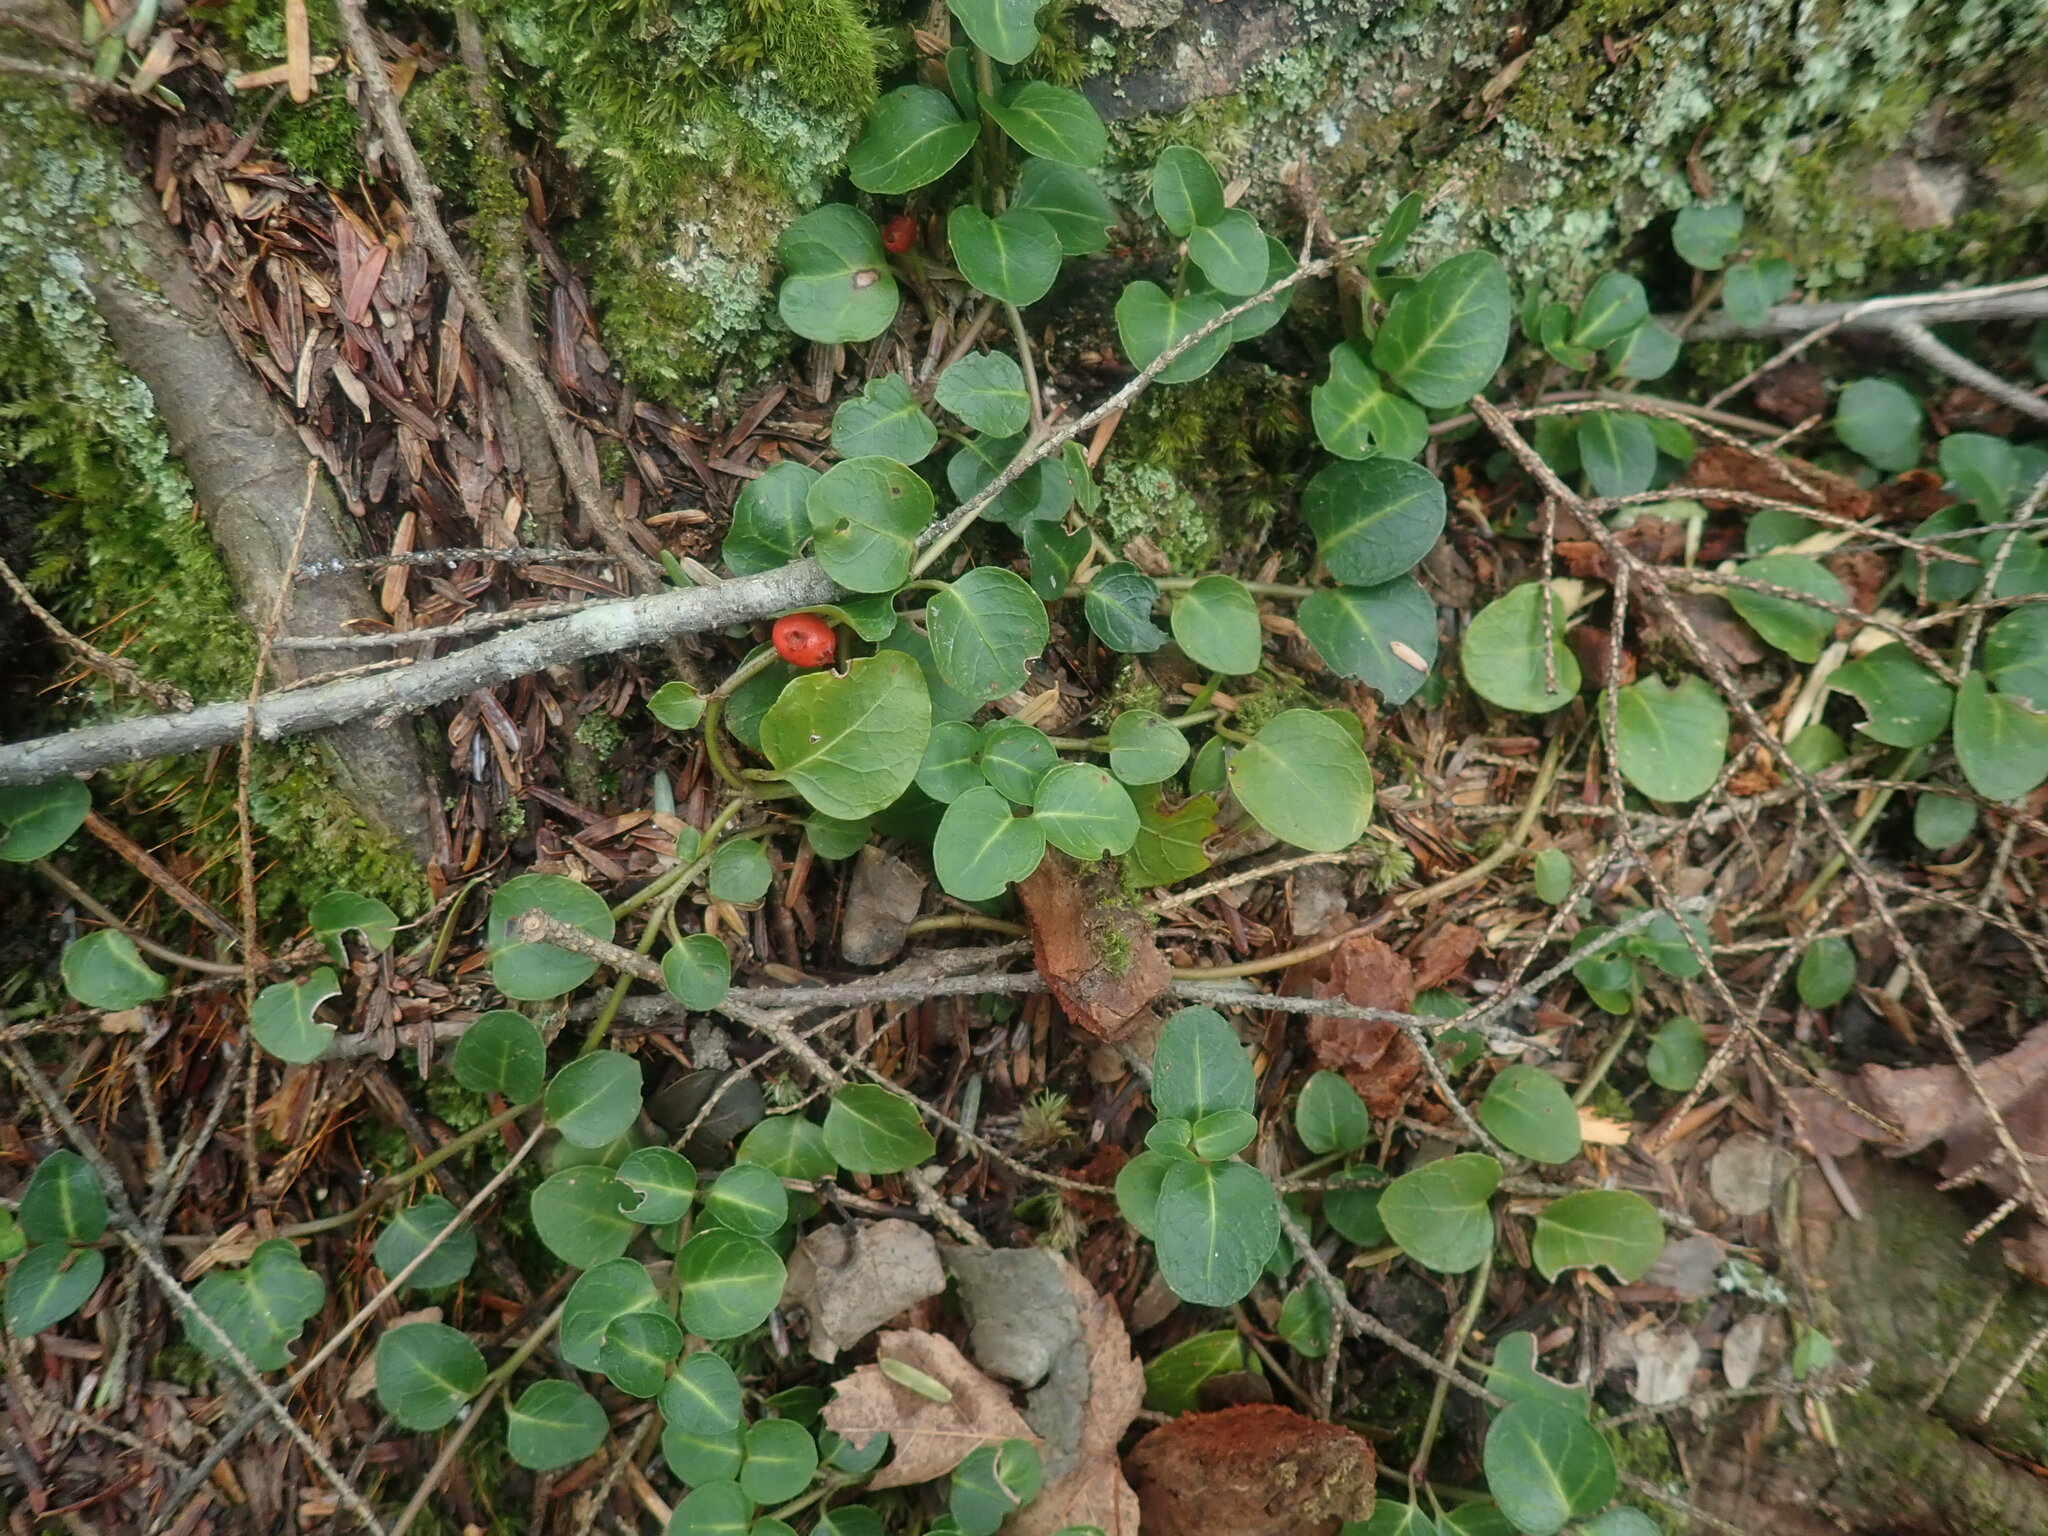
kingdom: Plantae
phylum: Tracheophyta
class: Magnoliopsida
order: Gentianales
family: Rubiaceae
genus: Mitchella
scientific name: Mitchella repens
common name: Partridge-berry
